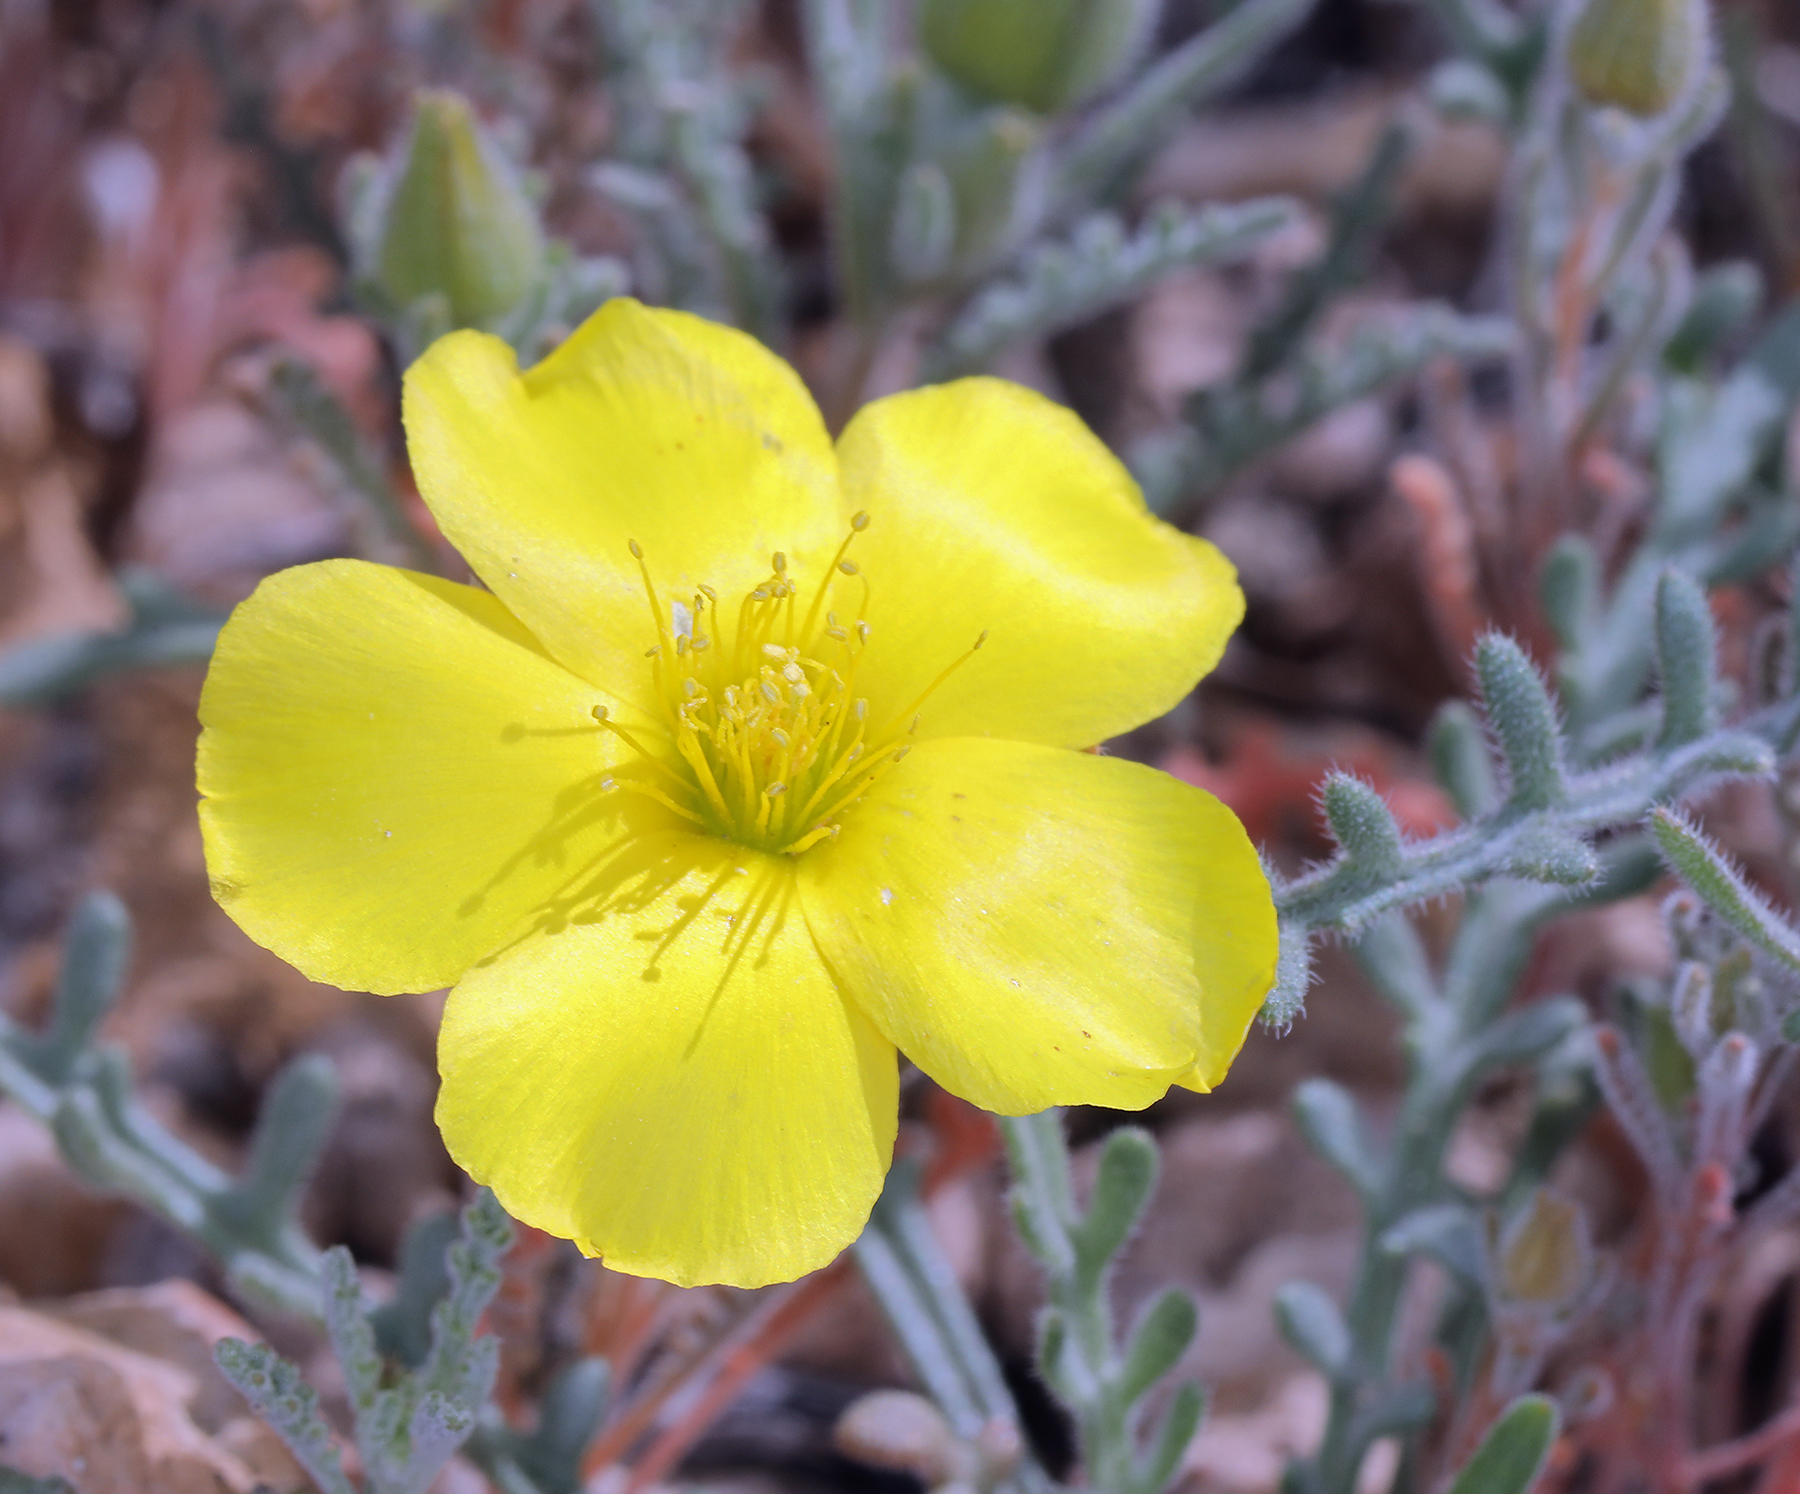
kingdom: Plantae
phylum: Tracheophyta
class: Magnoliopsida
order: Cornales
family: Loasaceae
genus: Mentzelia
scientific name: Mentzelia nitens
